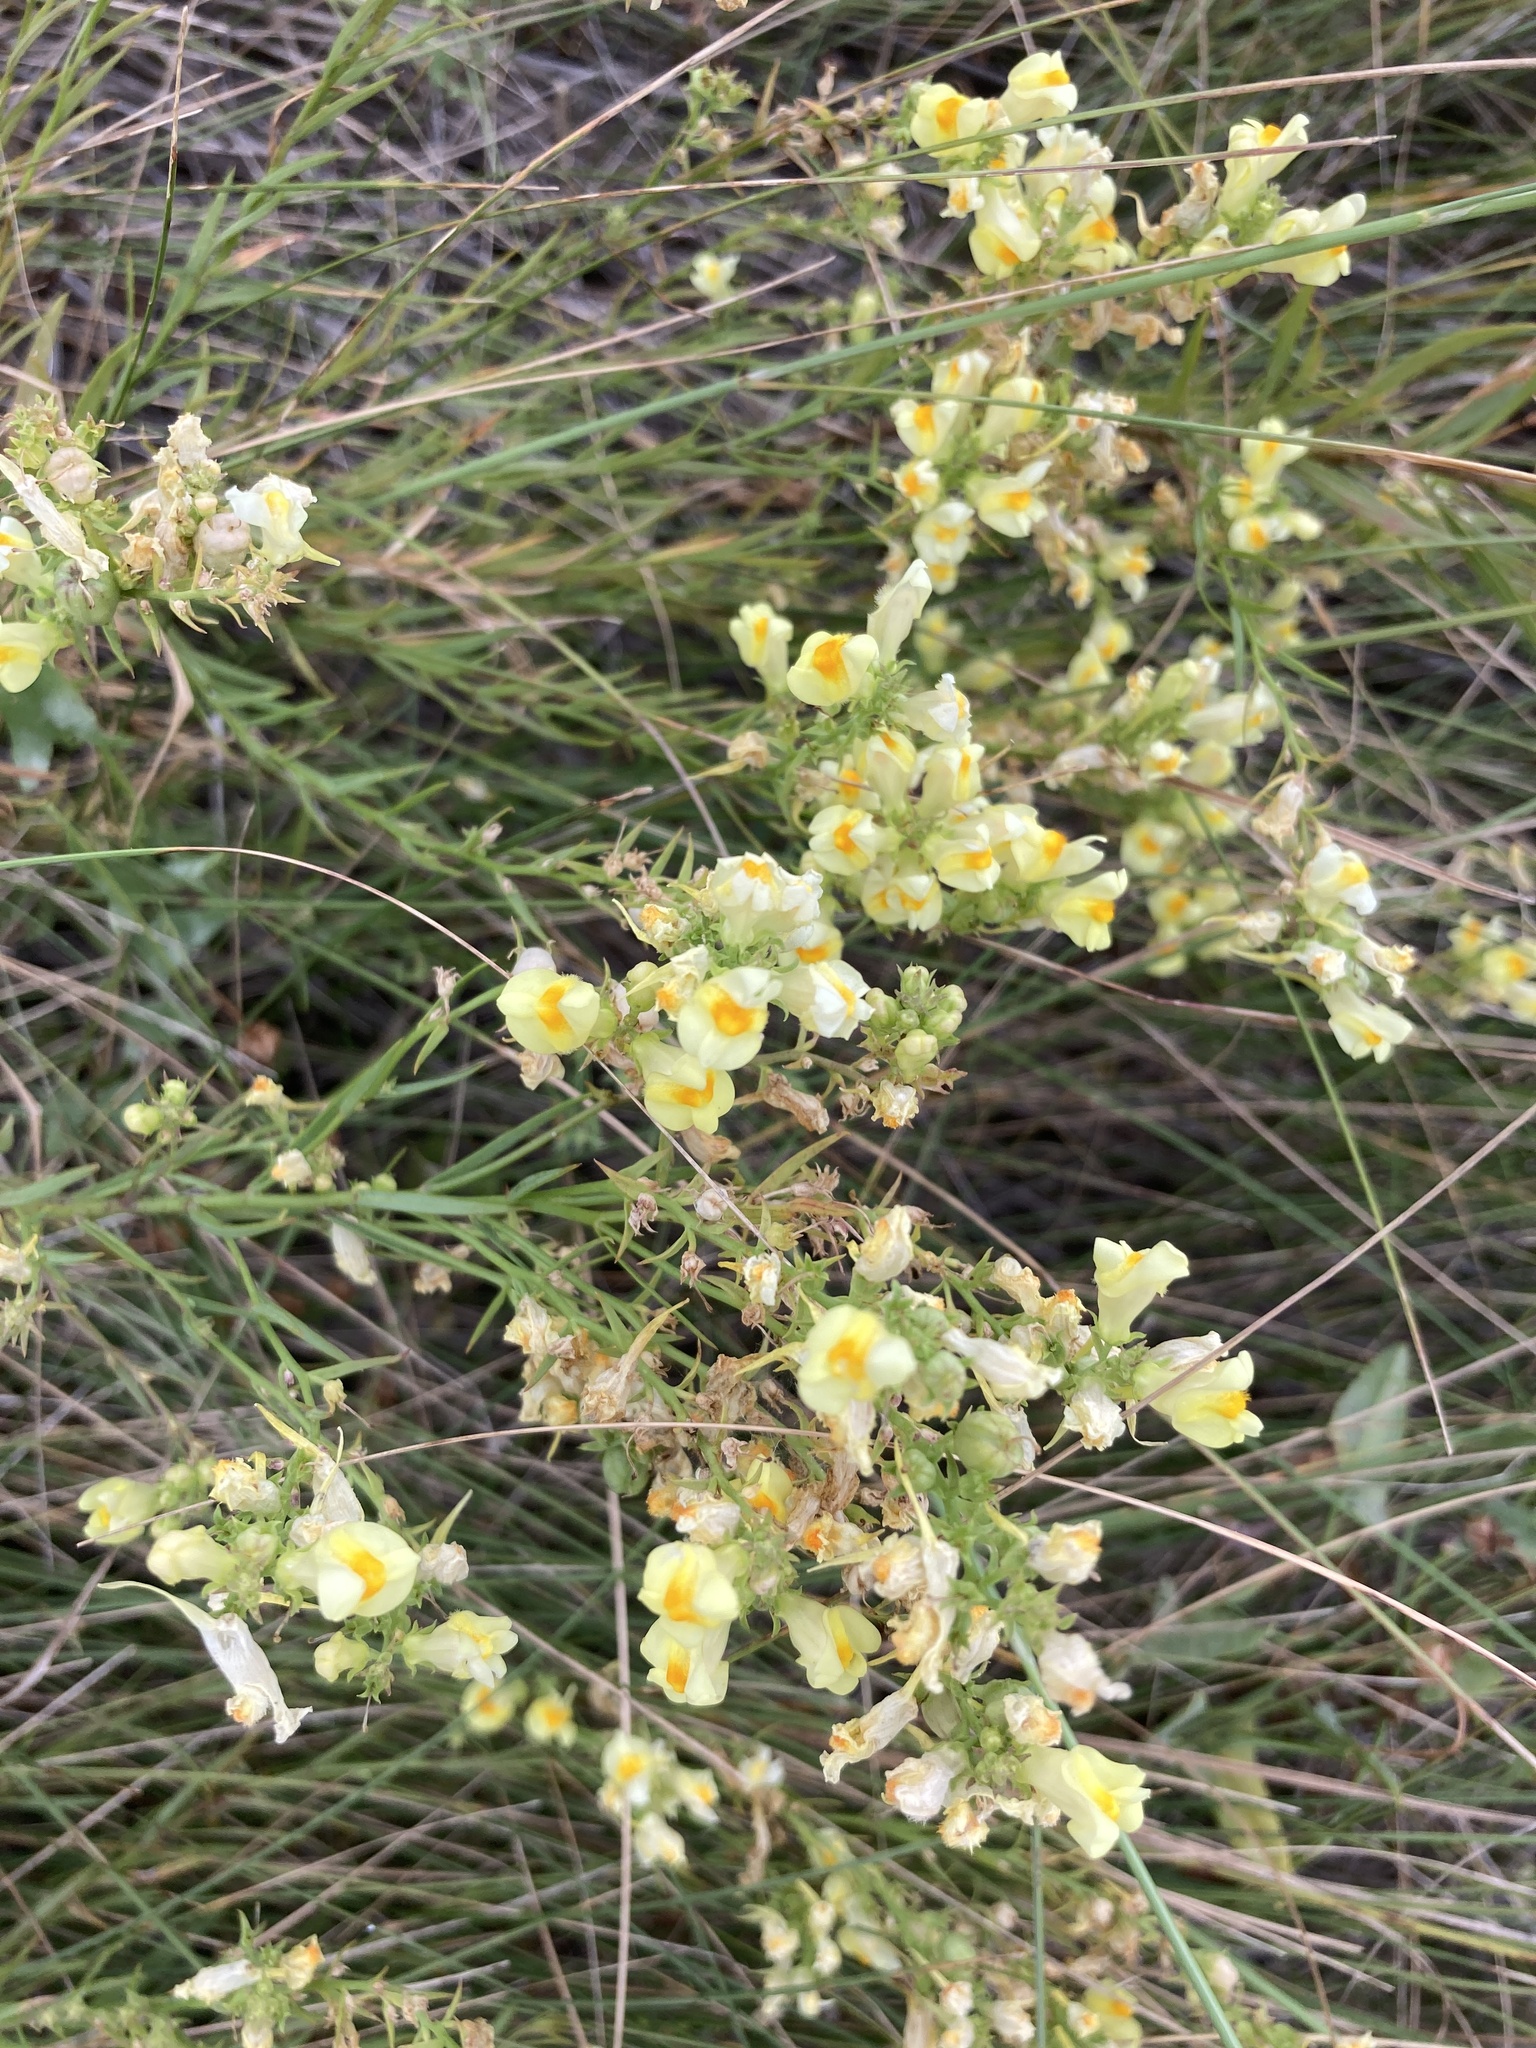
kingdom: Plantae
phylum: Tracheophyta
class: Magnoliopsida
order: Lamiales
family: Plantaginaceae
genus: Linaria
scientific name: Linaria vulgaris
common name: Butter and eggs
